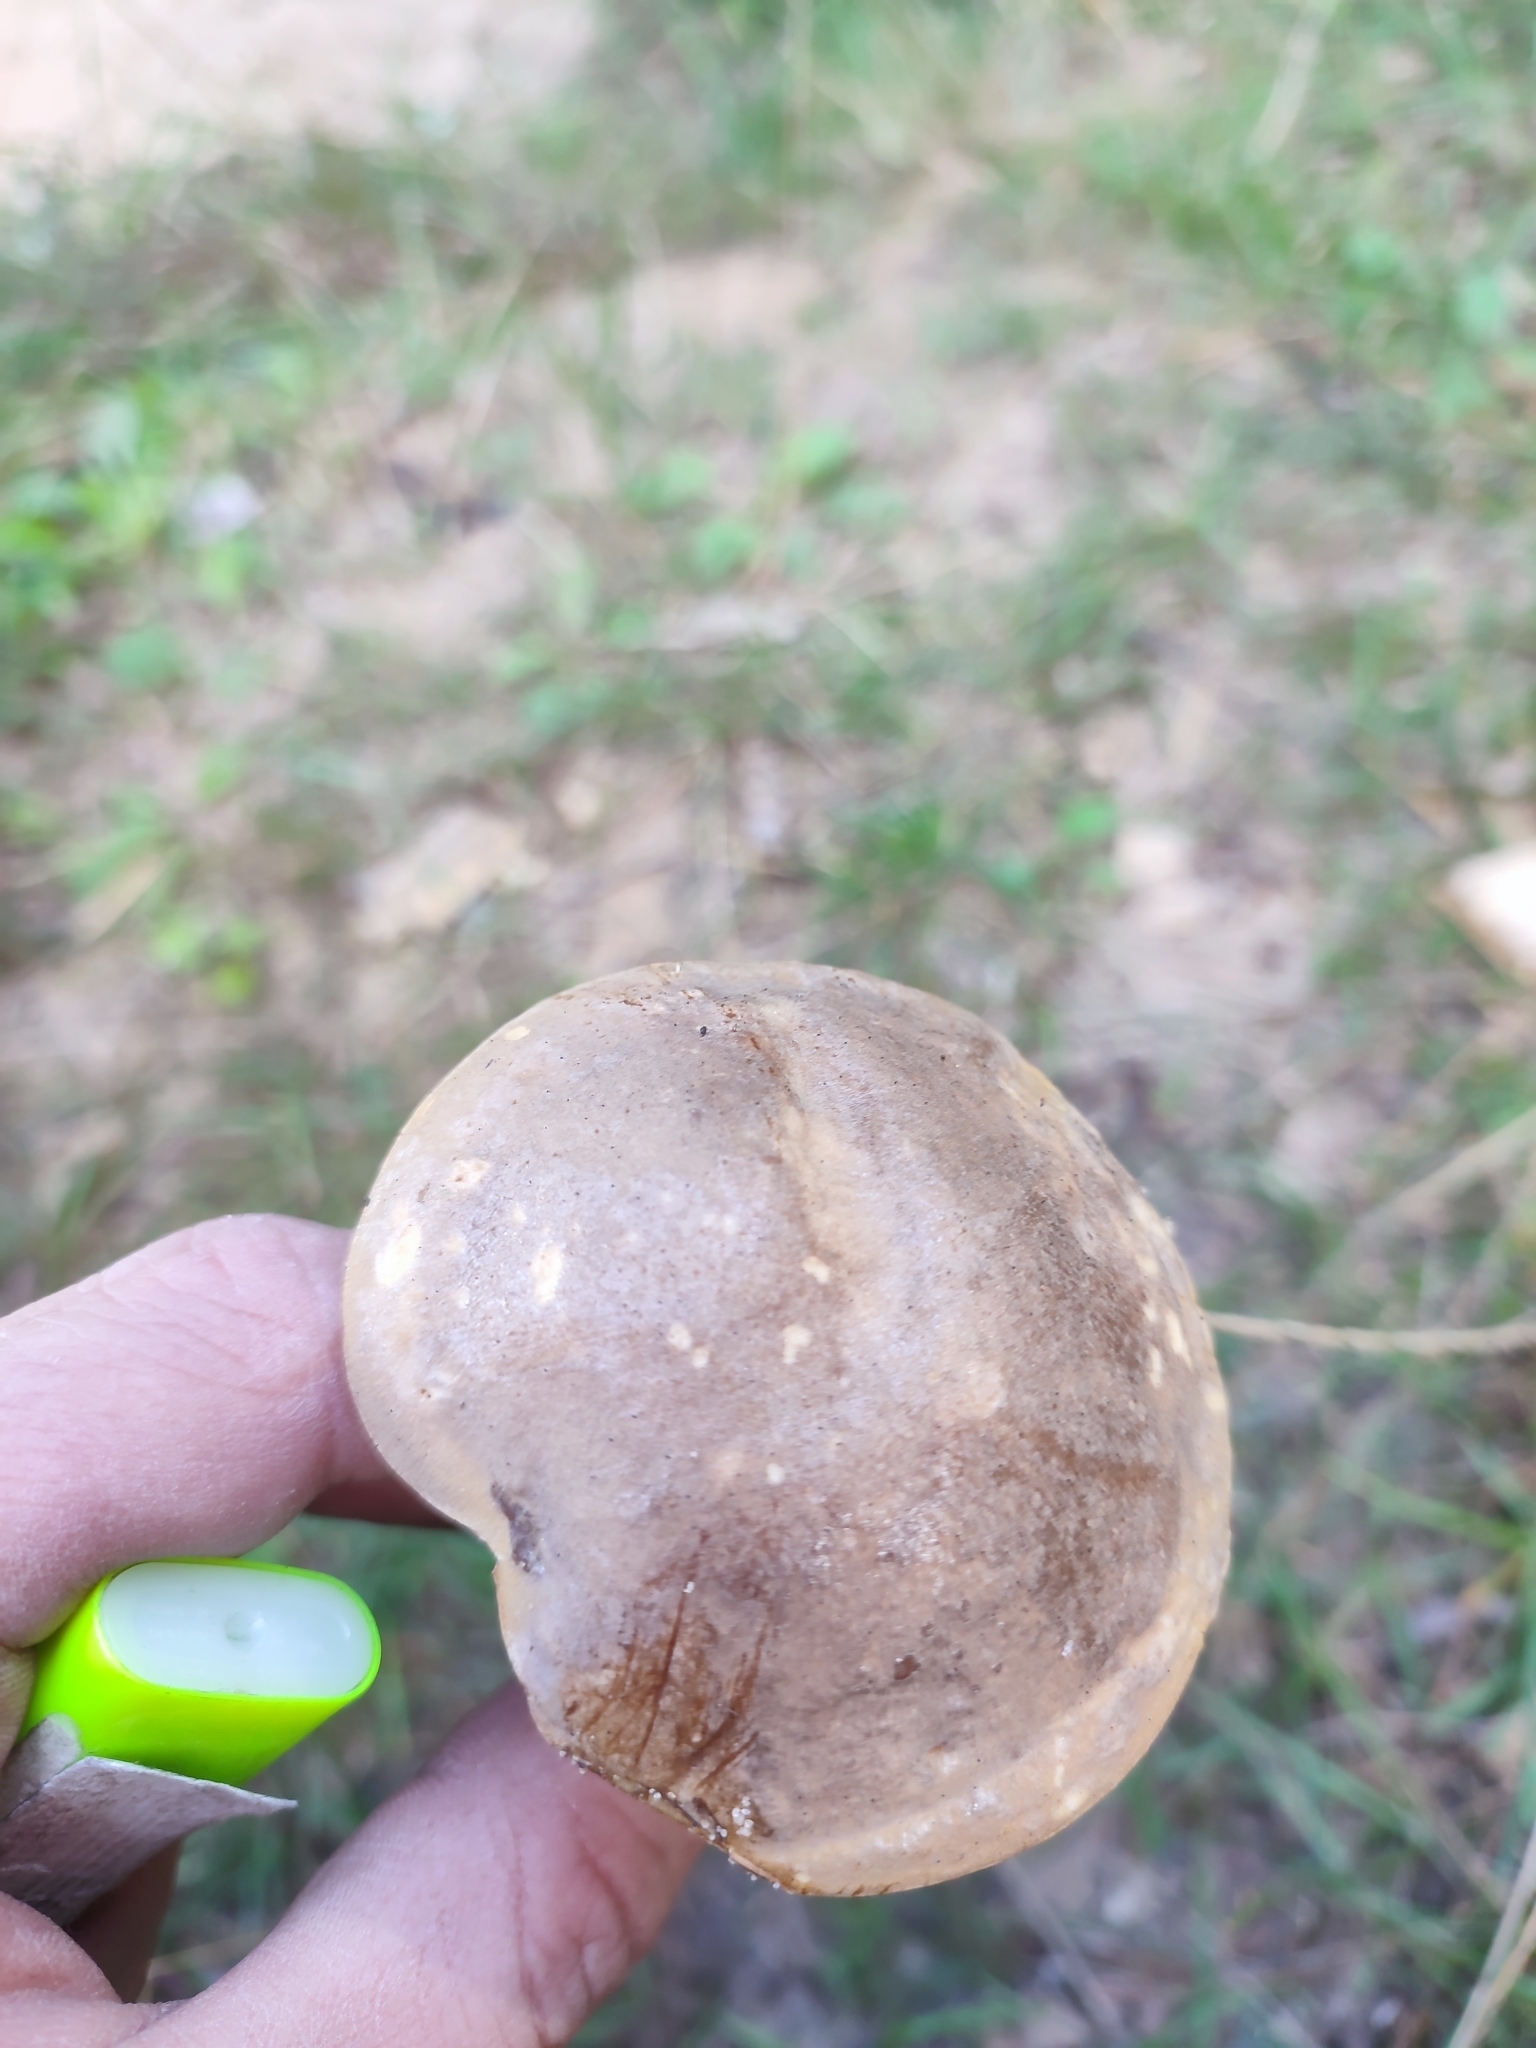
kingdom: Fungi
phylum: Basidiomycota
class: Agaricomycetes
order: Boletales
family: Boletaceae
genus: Leccinum
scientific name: Leccinum scabrum
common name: Blushing bolete
